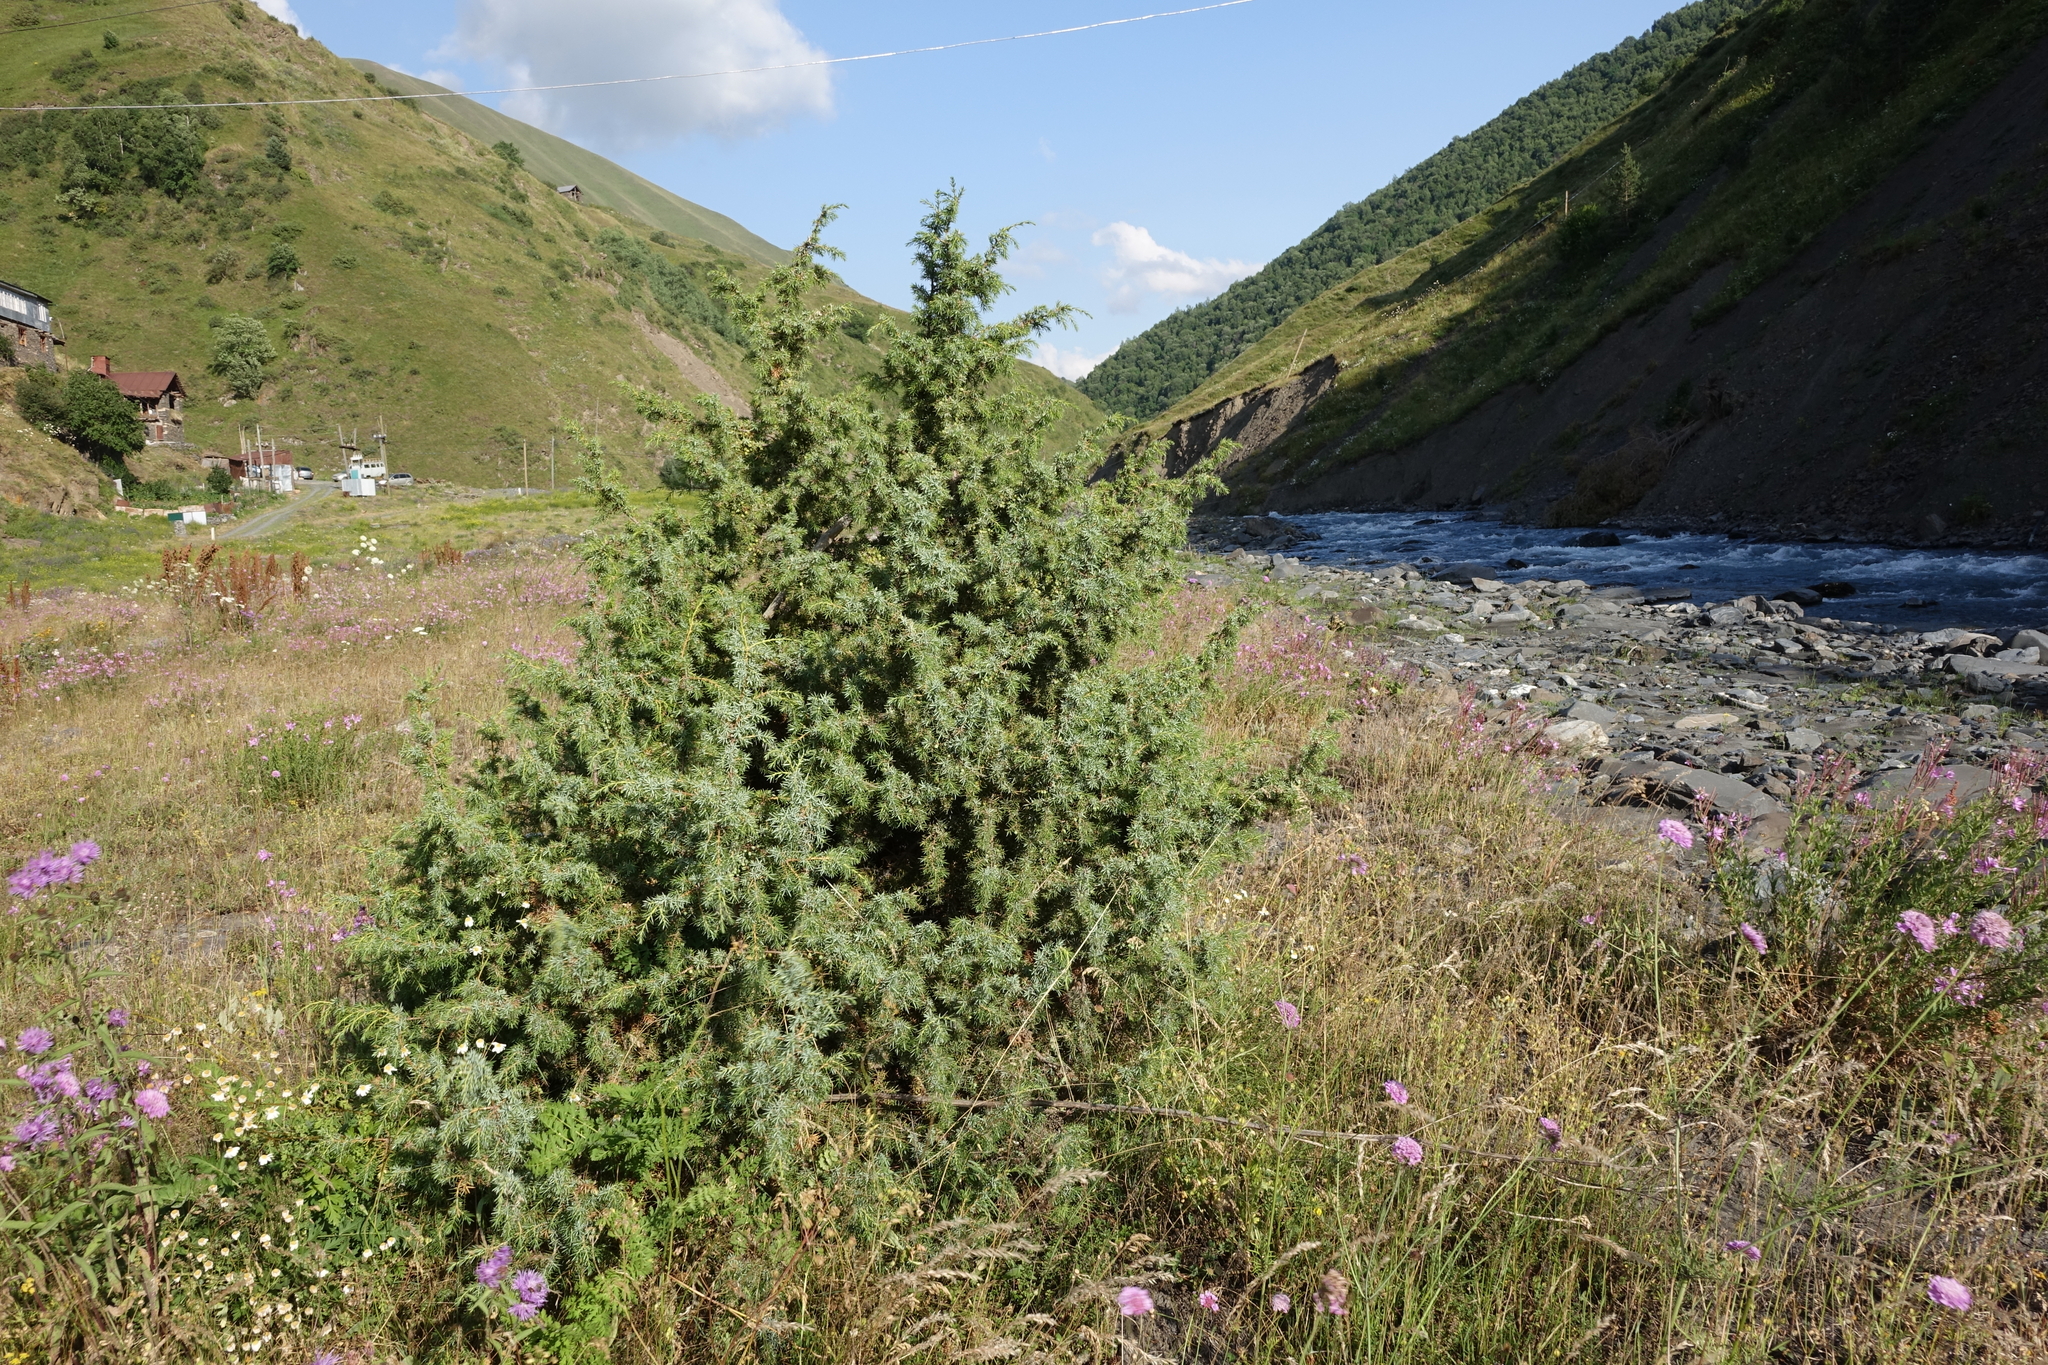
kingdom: Plantae
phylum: Tracheophyta
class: Pinopsida
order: Pinales
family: Cupressaceae
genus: Juniperus
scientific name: Juniperus communis
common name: Common juniper
